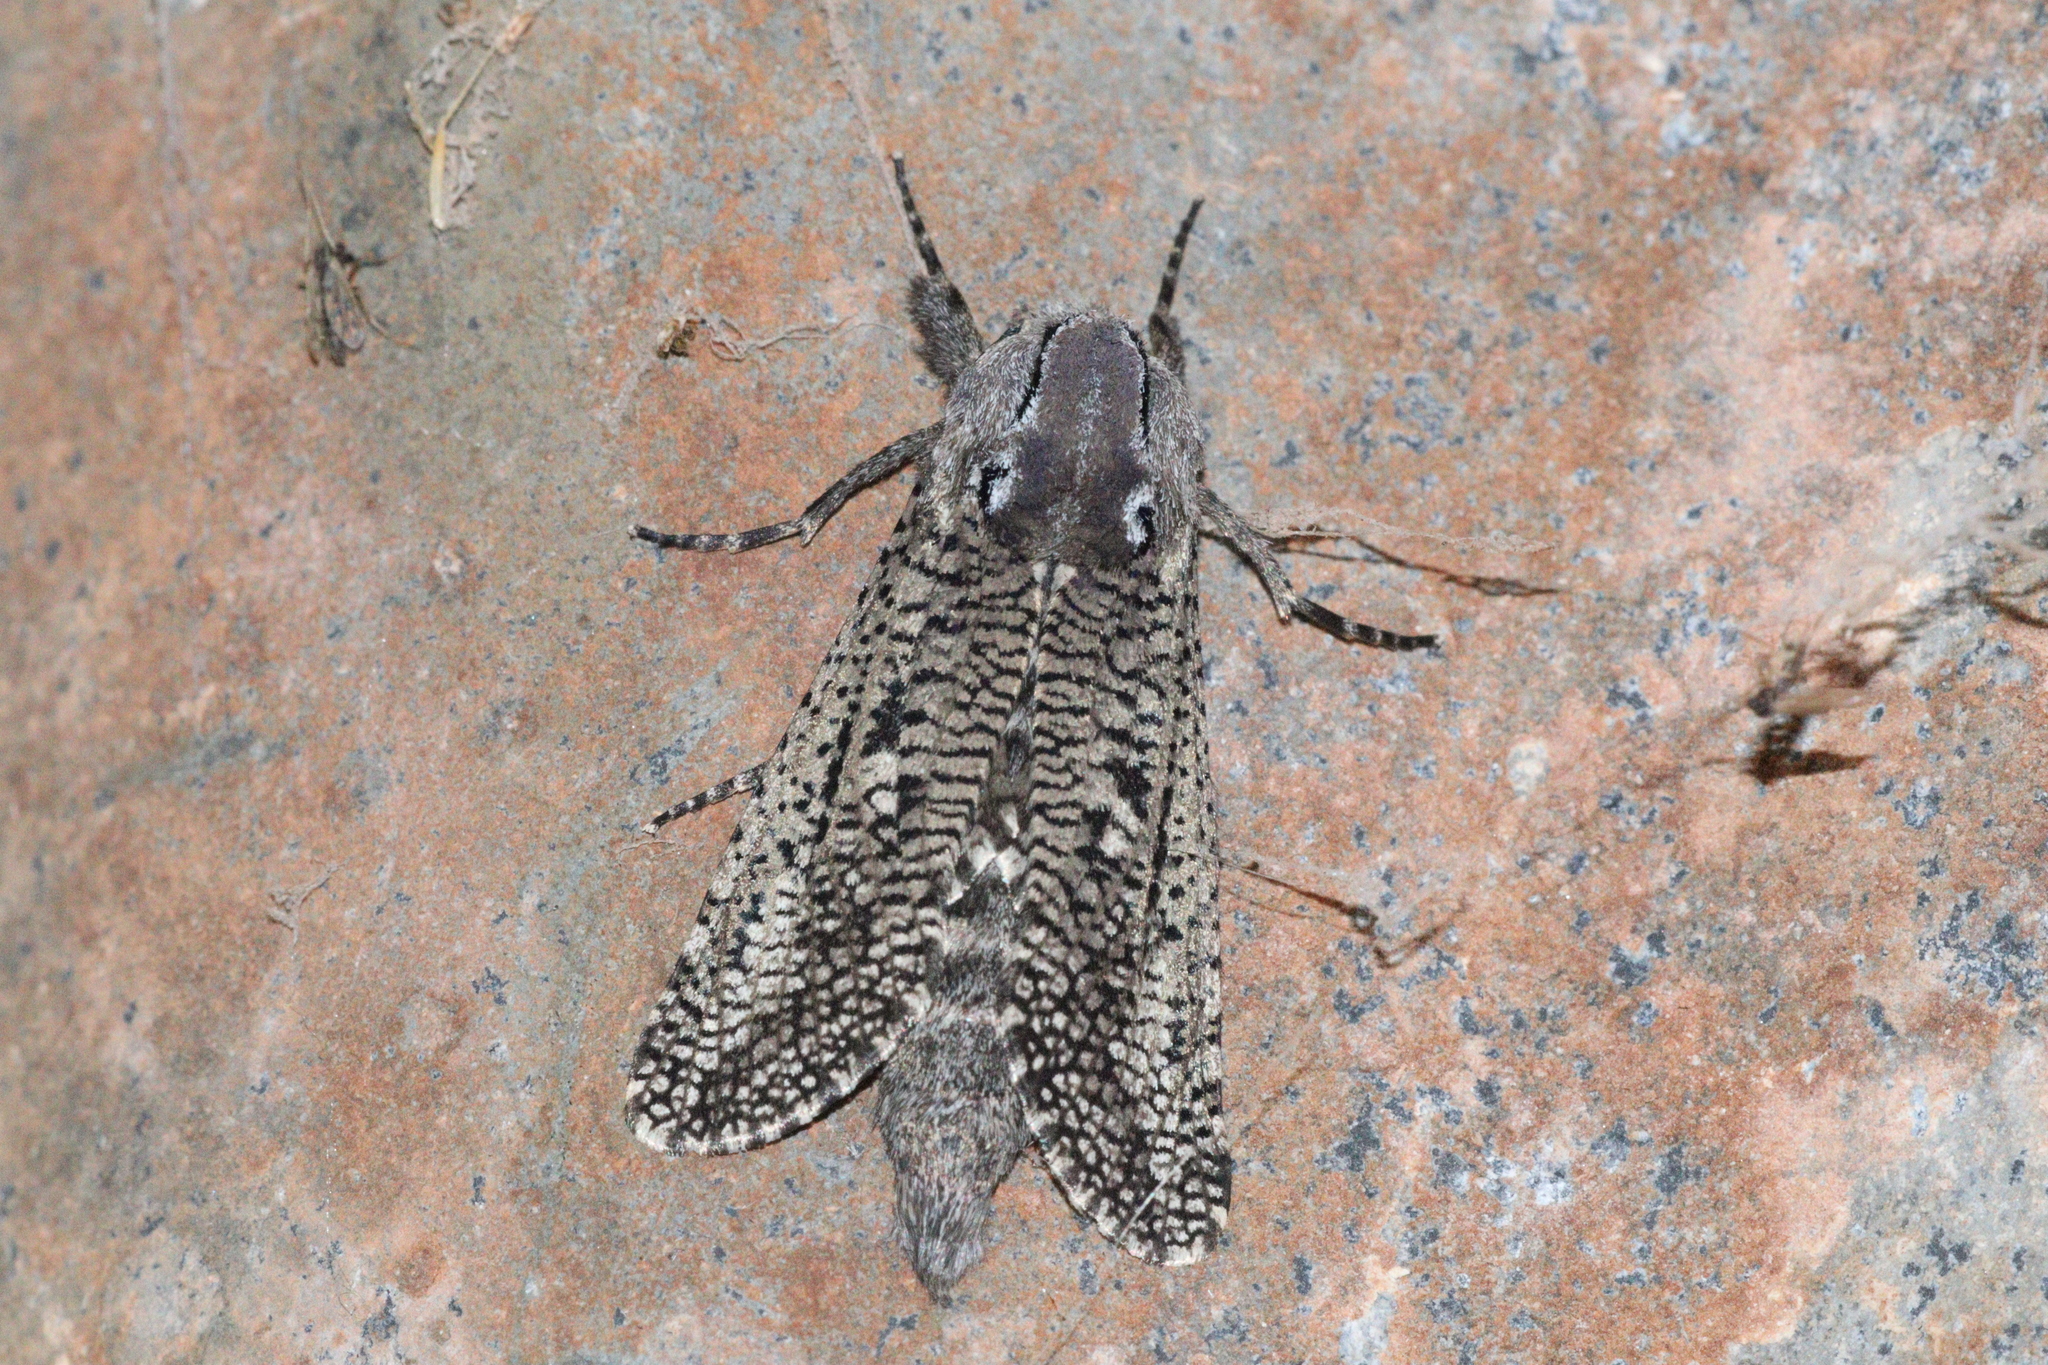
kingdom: Animalia
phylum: Arthropoda
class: Insecta
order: Lepidoptera
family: Cossidae
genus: Endoxyla
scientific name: Endoxyla amphiplecta
